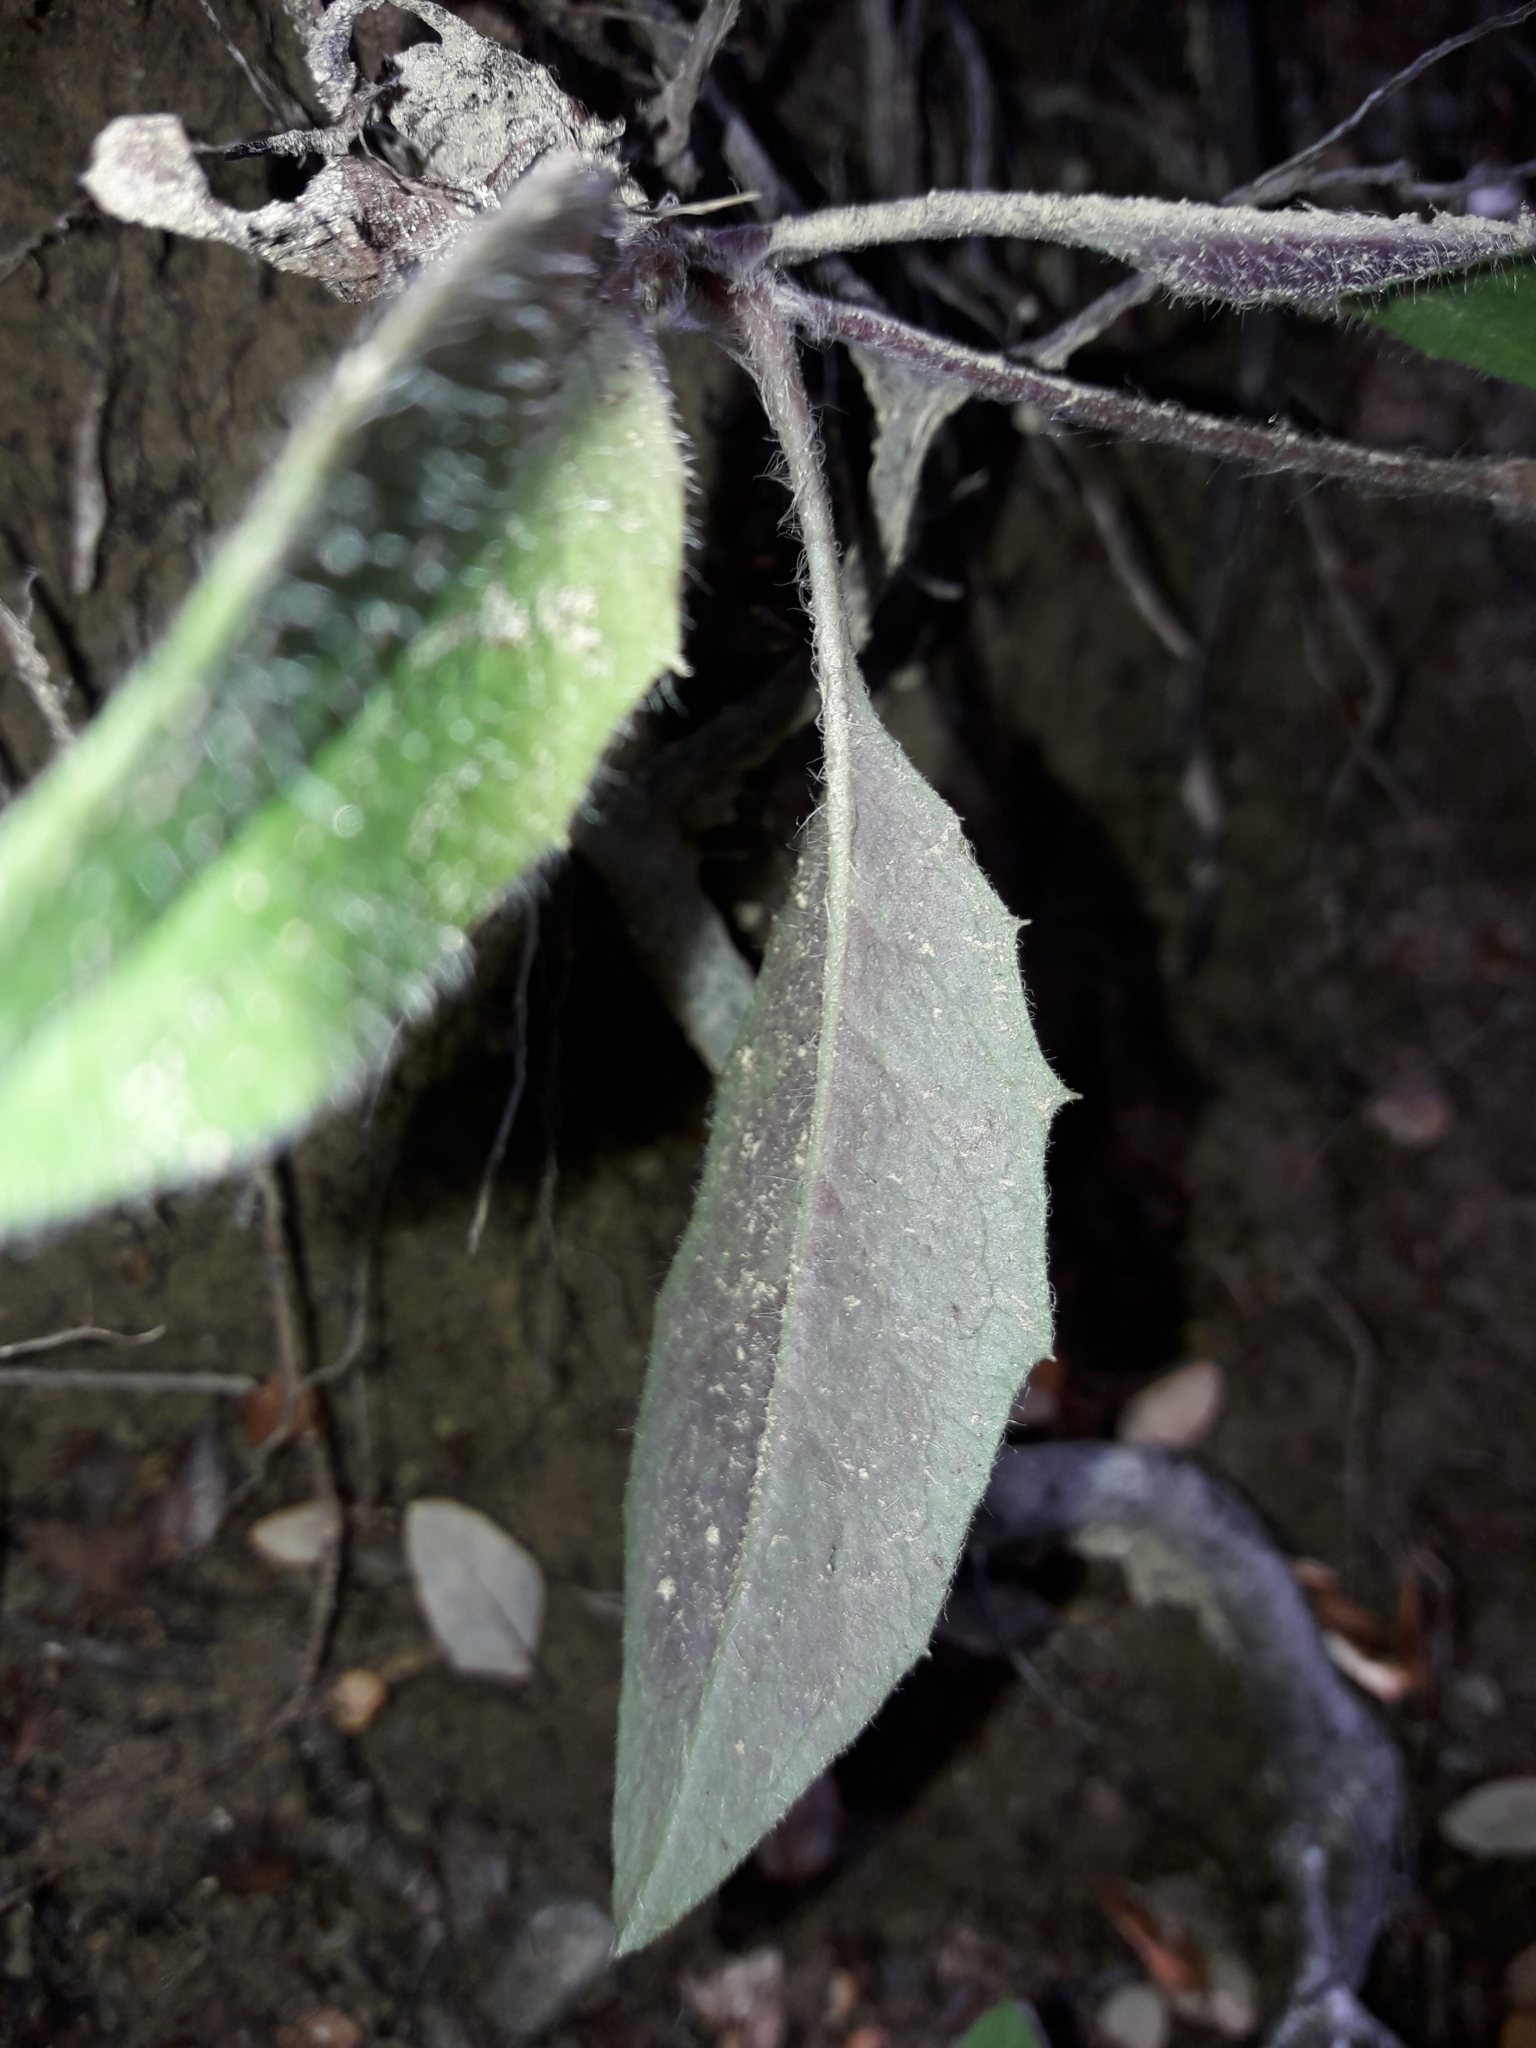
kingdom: Plantae
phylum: Tracheophyta
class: Magnoliopsida
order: Asterales
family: Asteraceae
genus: Hieracium
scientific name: Hieracium lepidulum
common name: Irregular-toothed hawkweed
